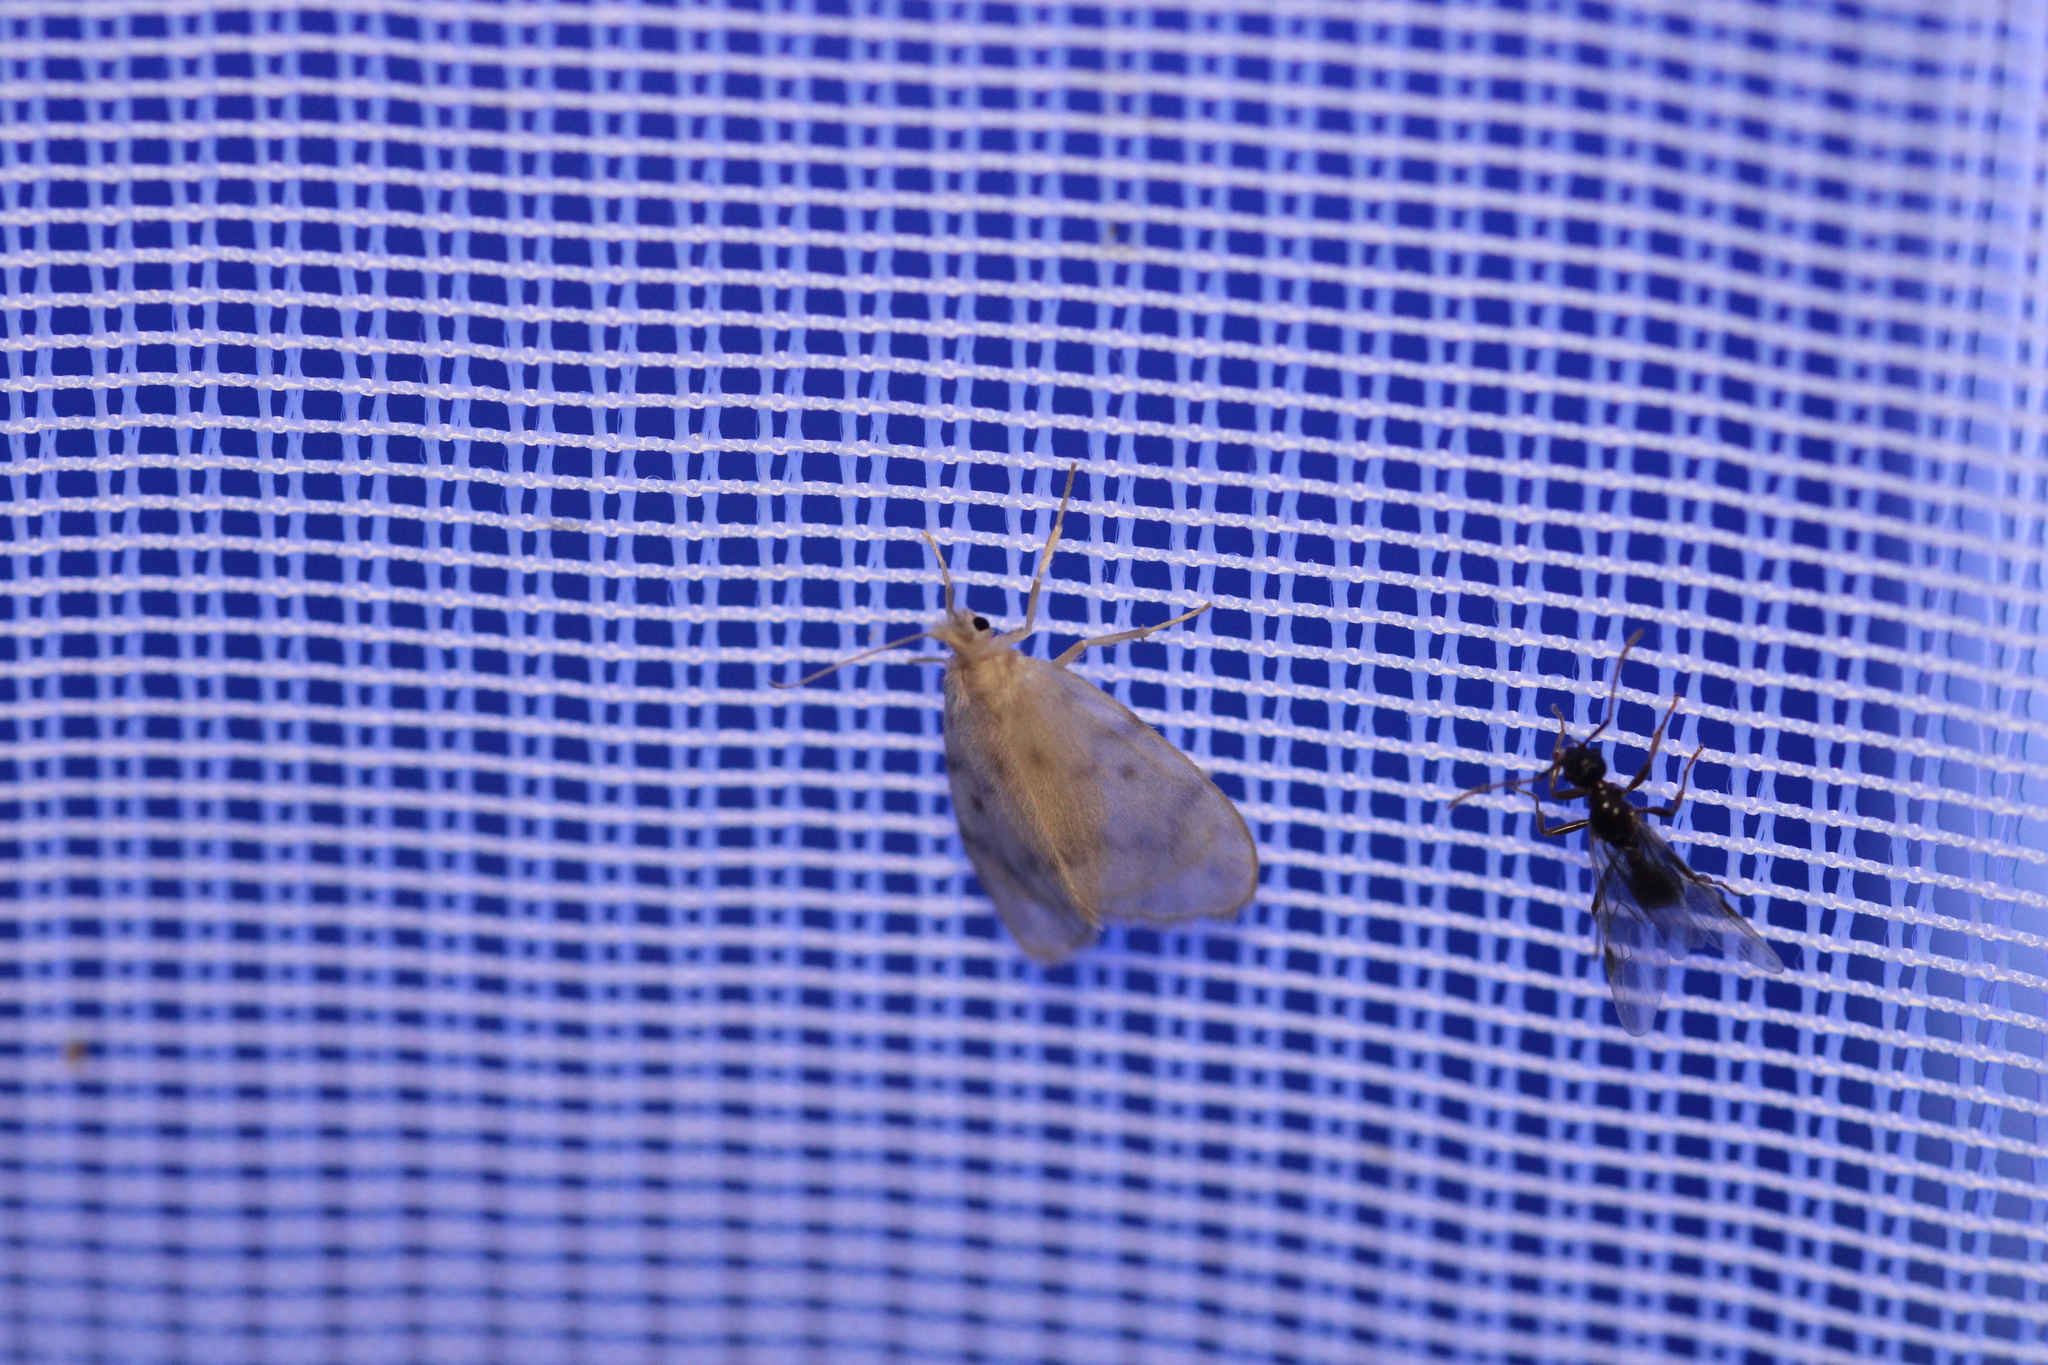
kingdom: Animalia
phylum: Arthropoda
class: Insecta
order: Lepidoptera
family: Erebidae
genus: Nudaria
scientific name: Nudaria mundana
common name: Muslin footman
